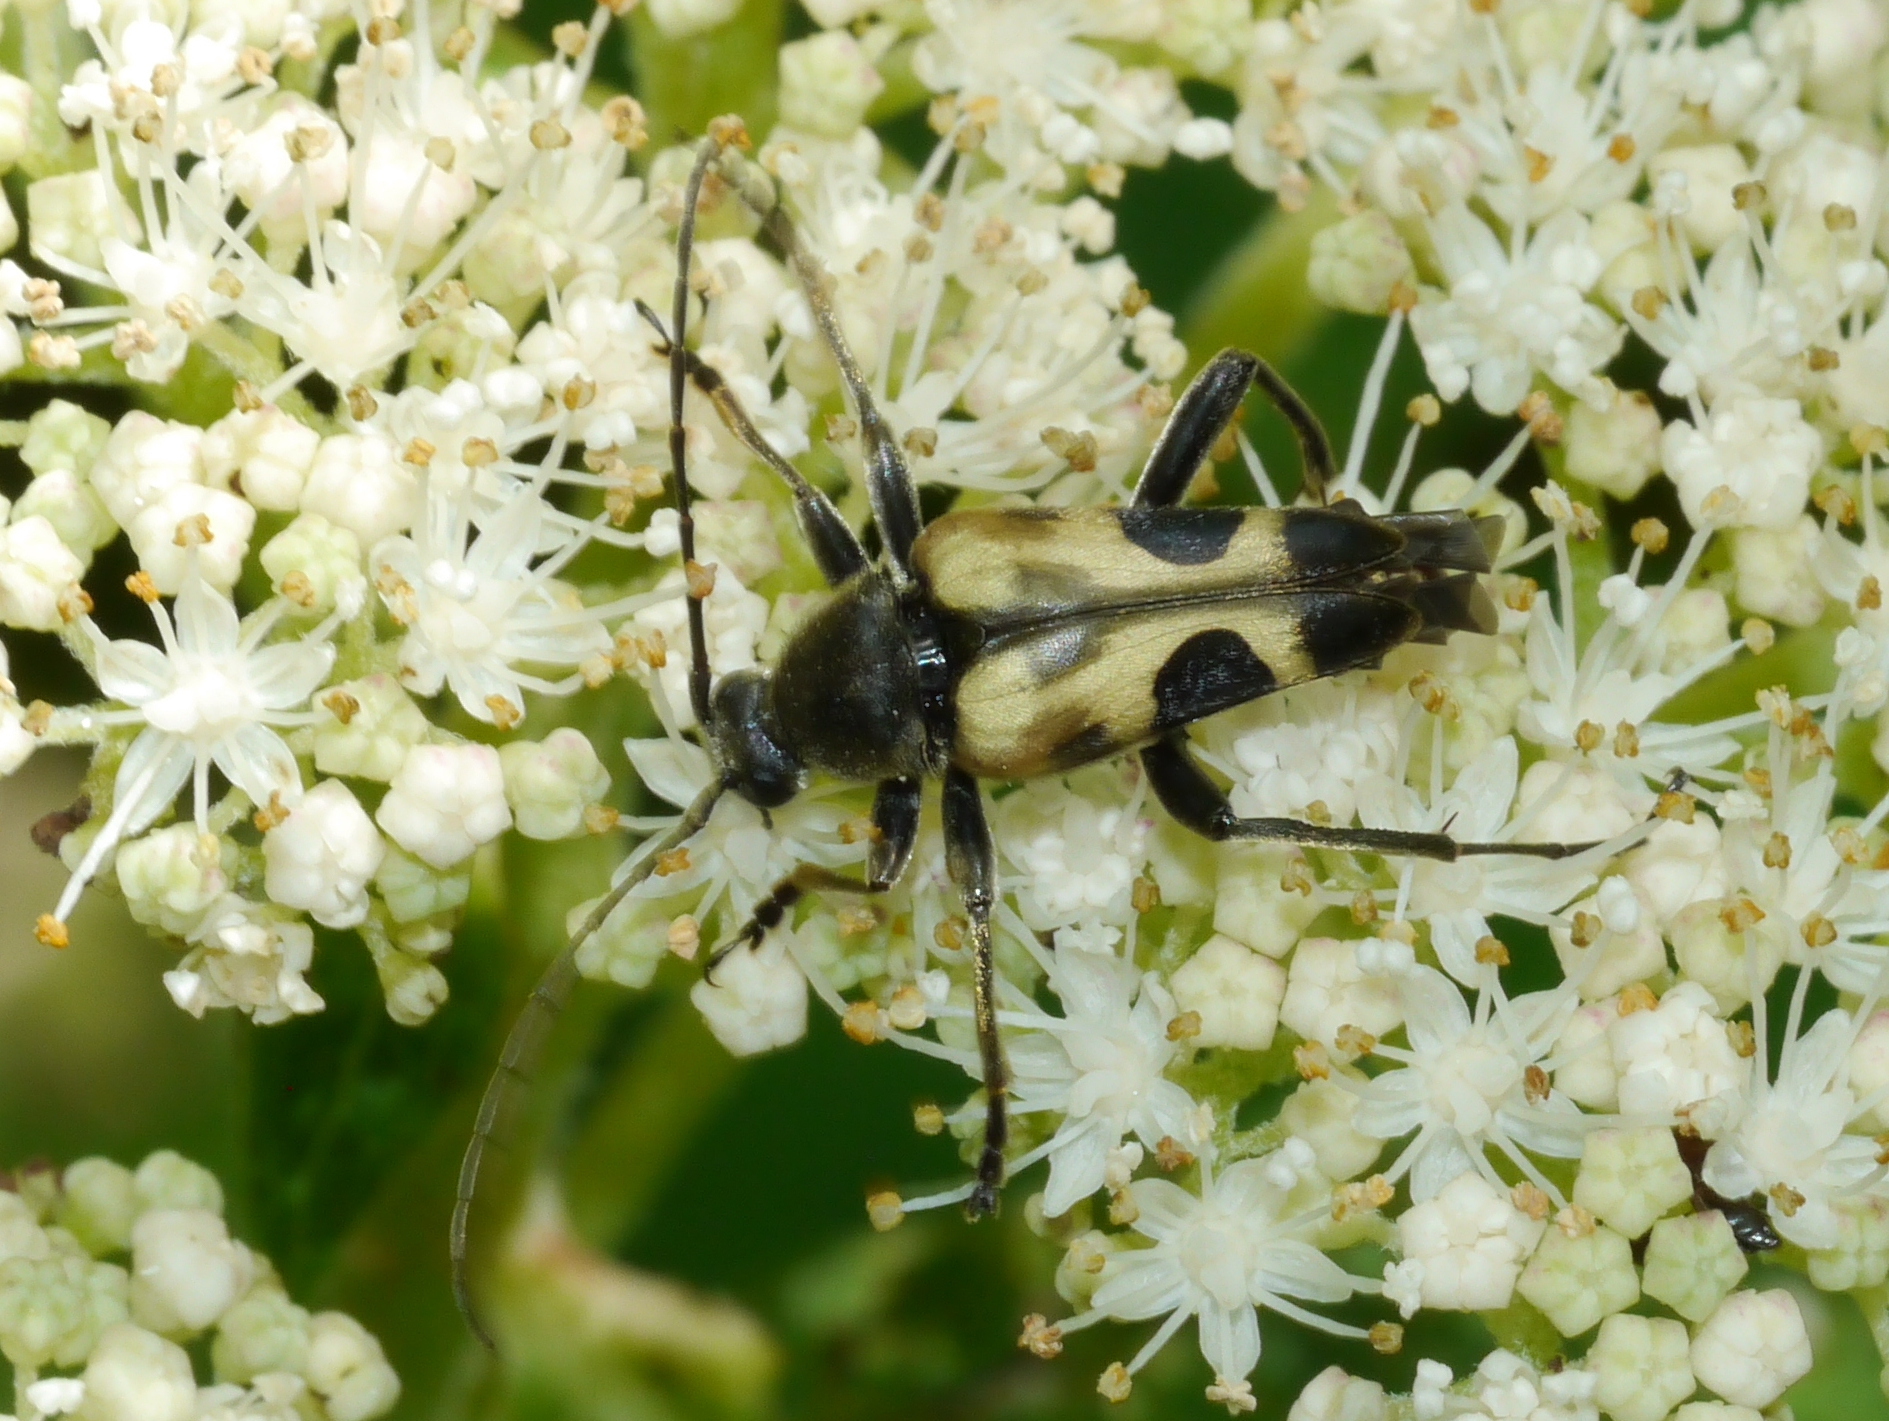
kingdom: Animalia
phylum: Arthropoda
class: Insecta
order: Coleoptera
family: Cerambycidae
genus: Judolia
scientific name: Judolia cordifera
